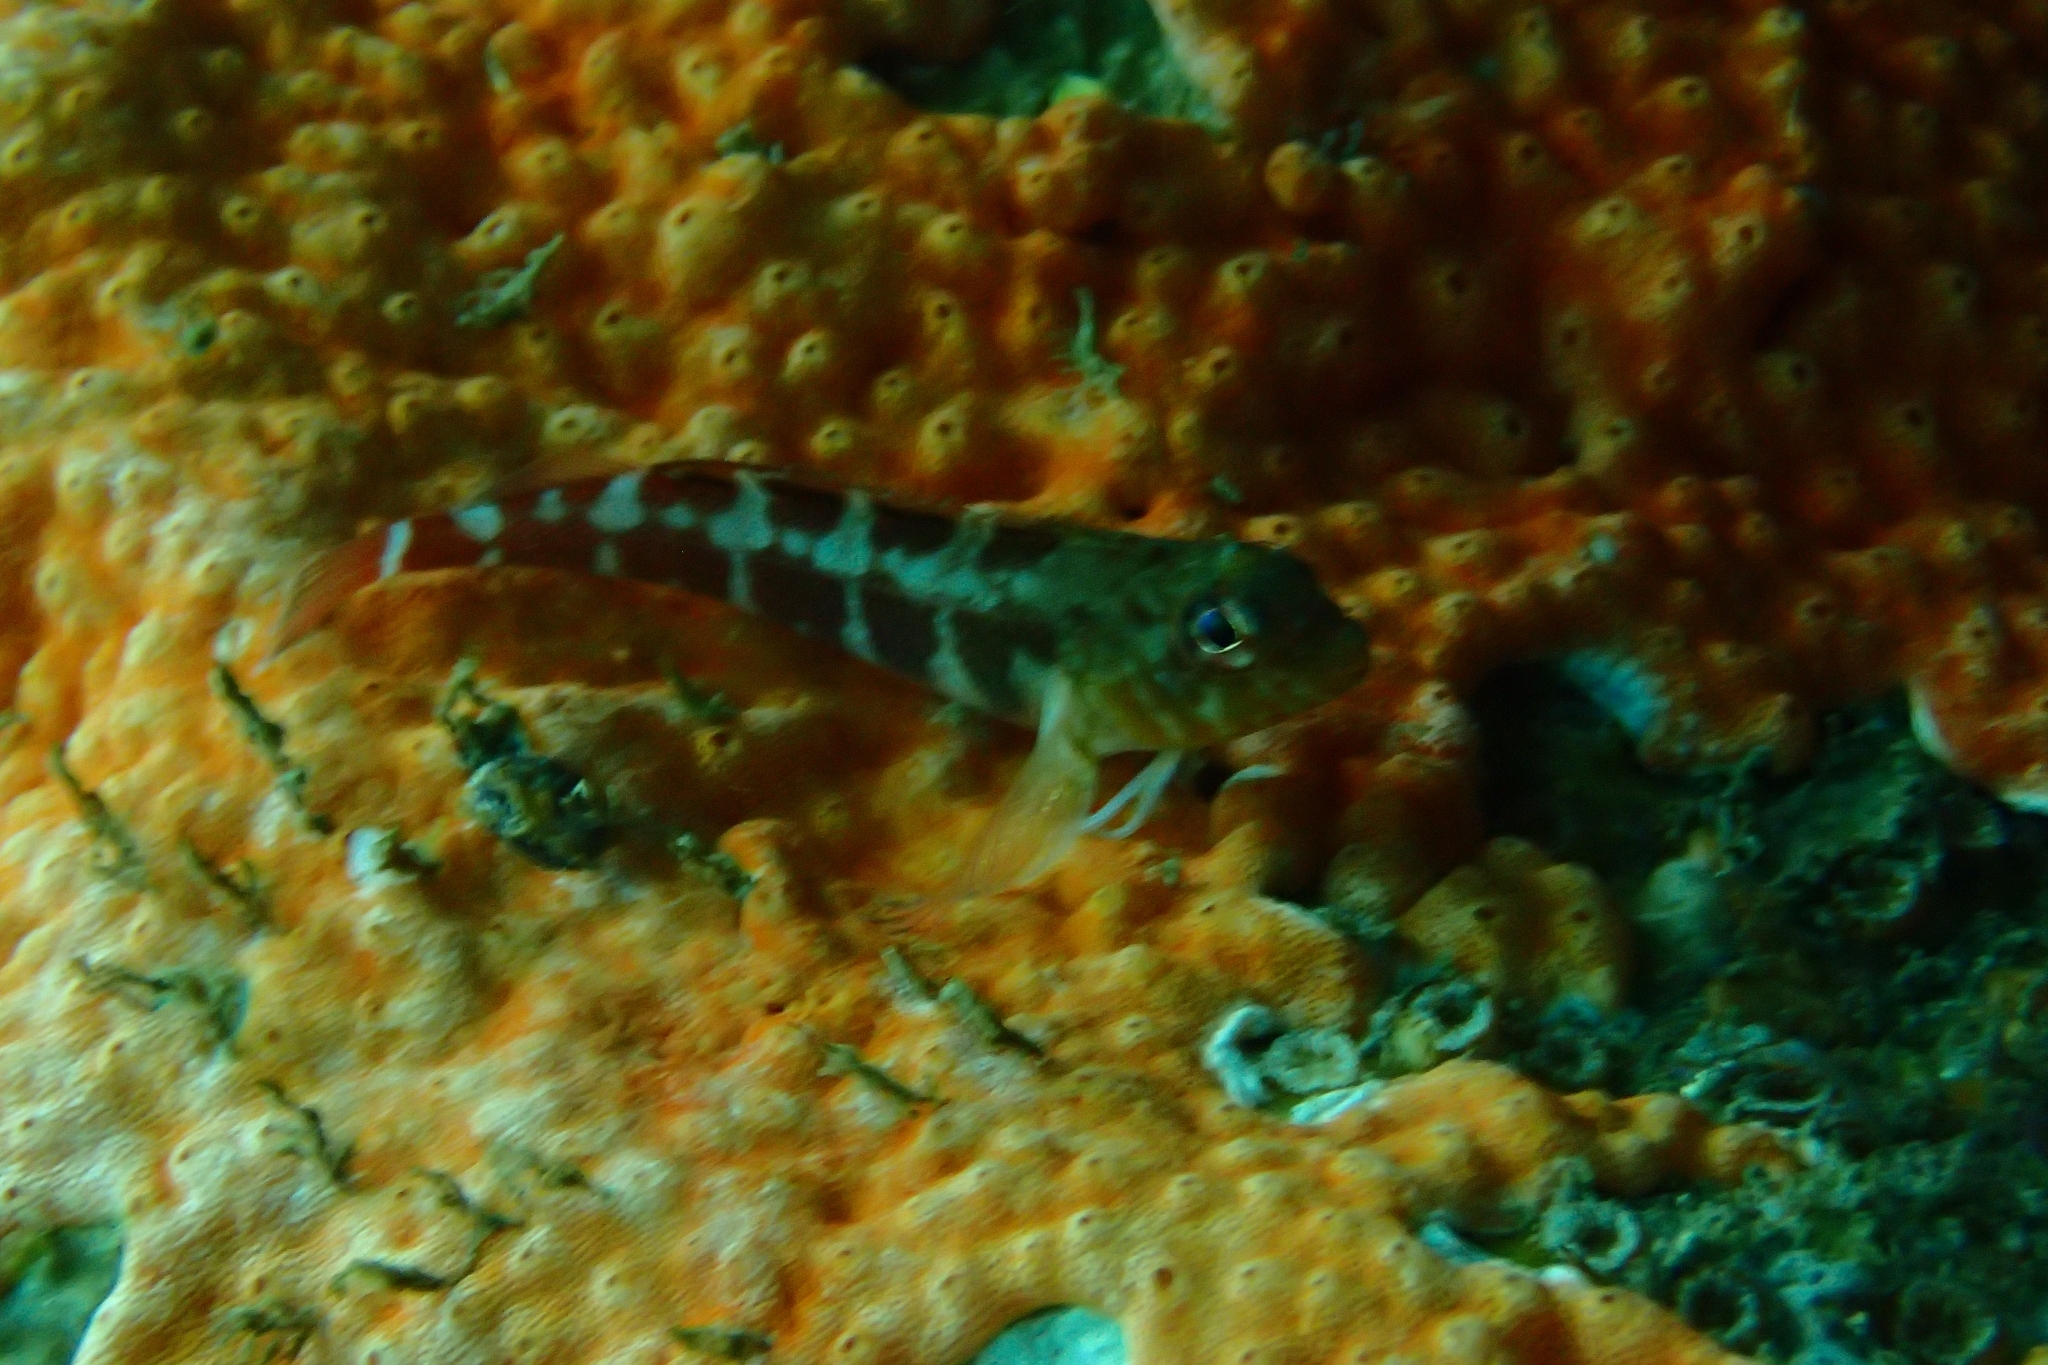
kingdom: Animalia
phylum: Chordata
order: Perciformes
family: Tripterygiidae
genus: Forsterygion
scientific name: Forsterygion malcolmi
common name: Mottled triplefin
